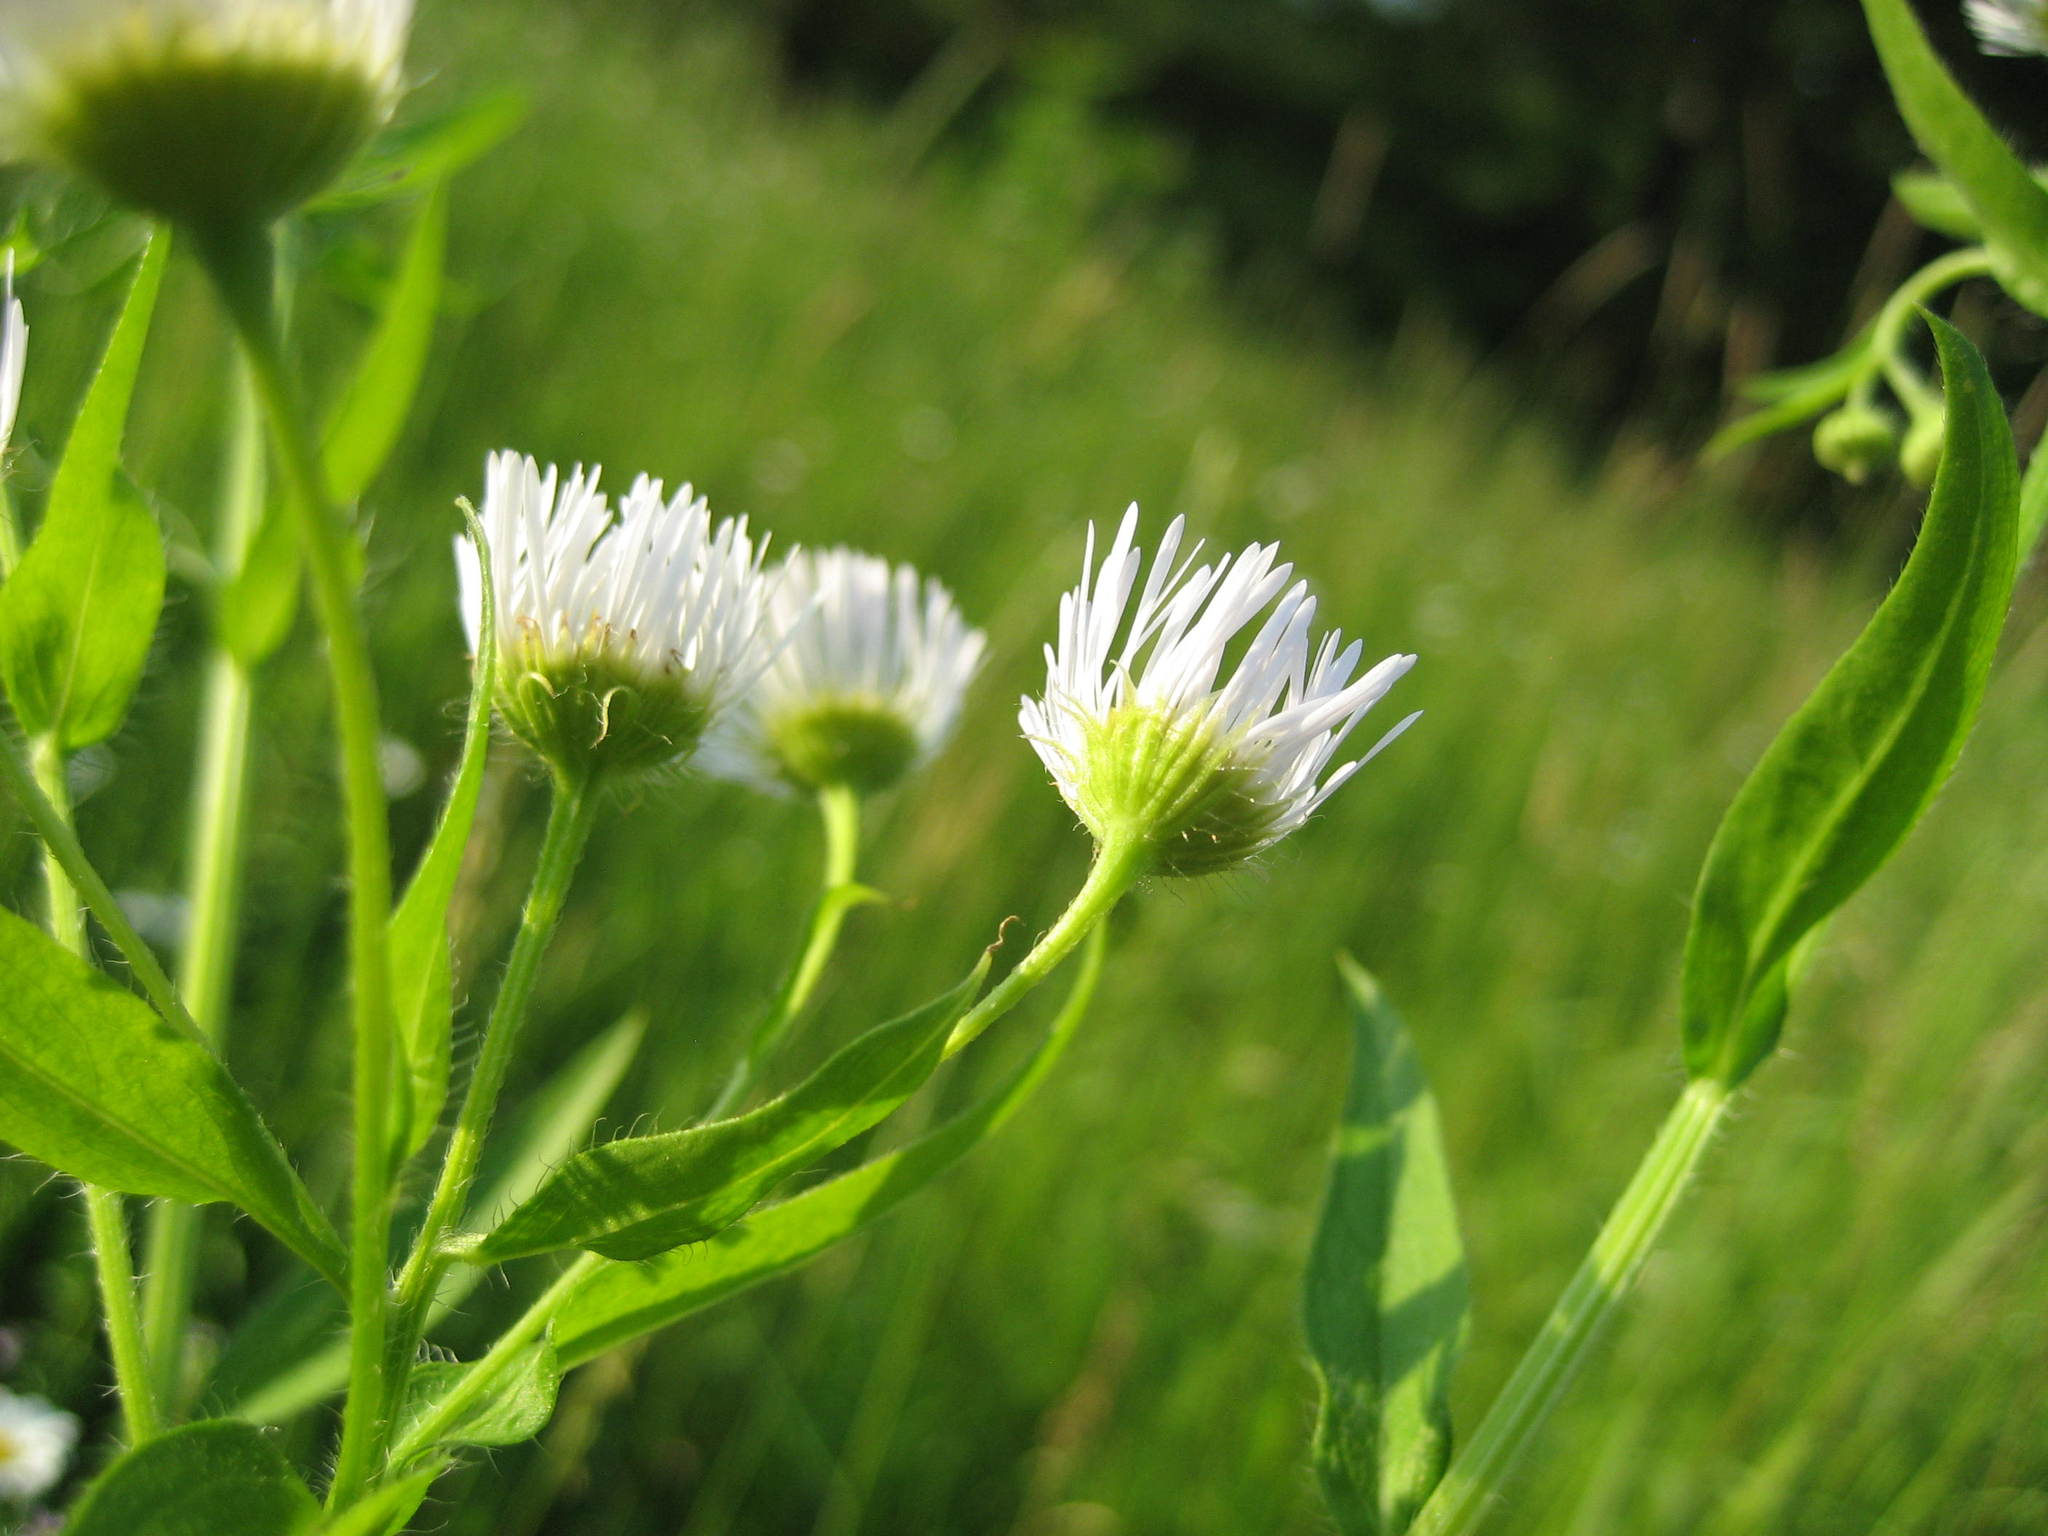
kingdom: Plantae
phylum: Tracheophyta
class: Magnoliopsida
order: Asterales
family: Asteraceae
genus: Erigeron
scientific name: Erigeron annuus
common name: Tall fleabane
